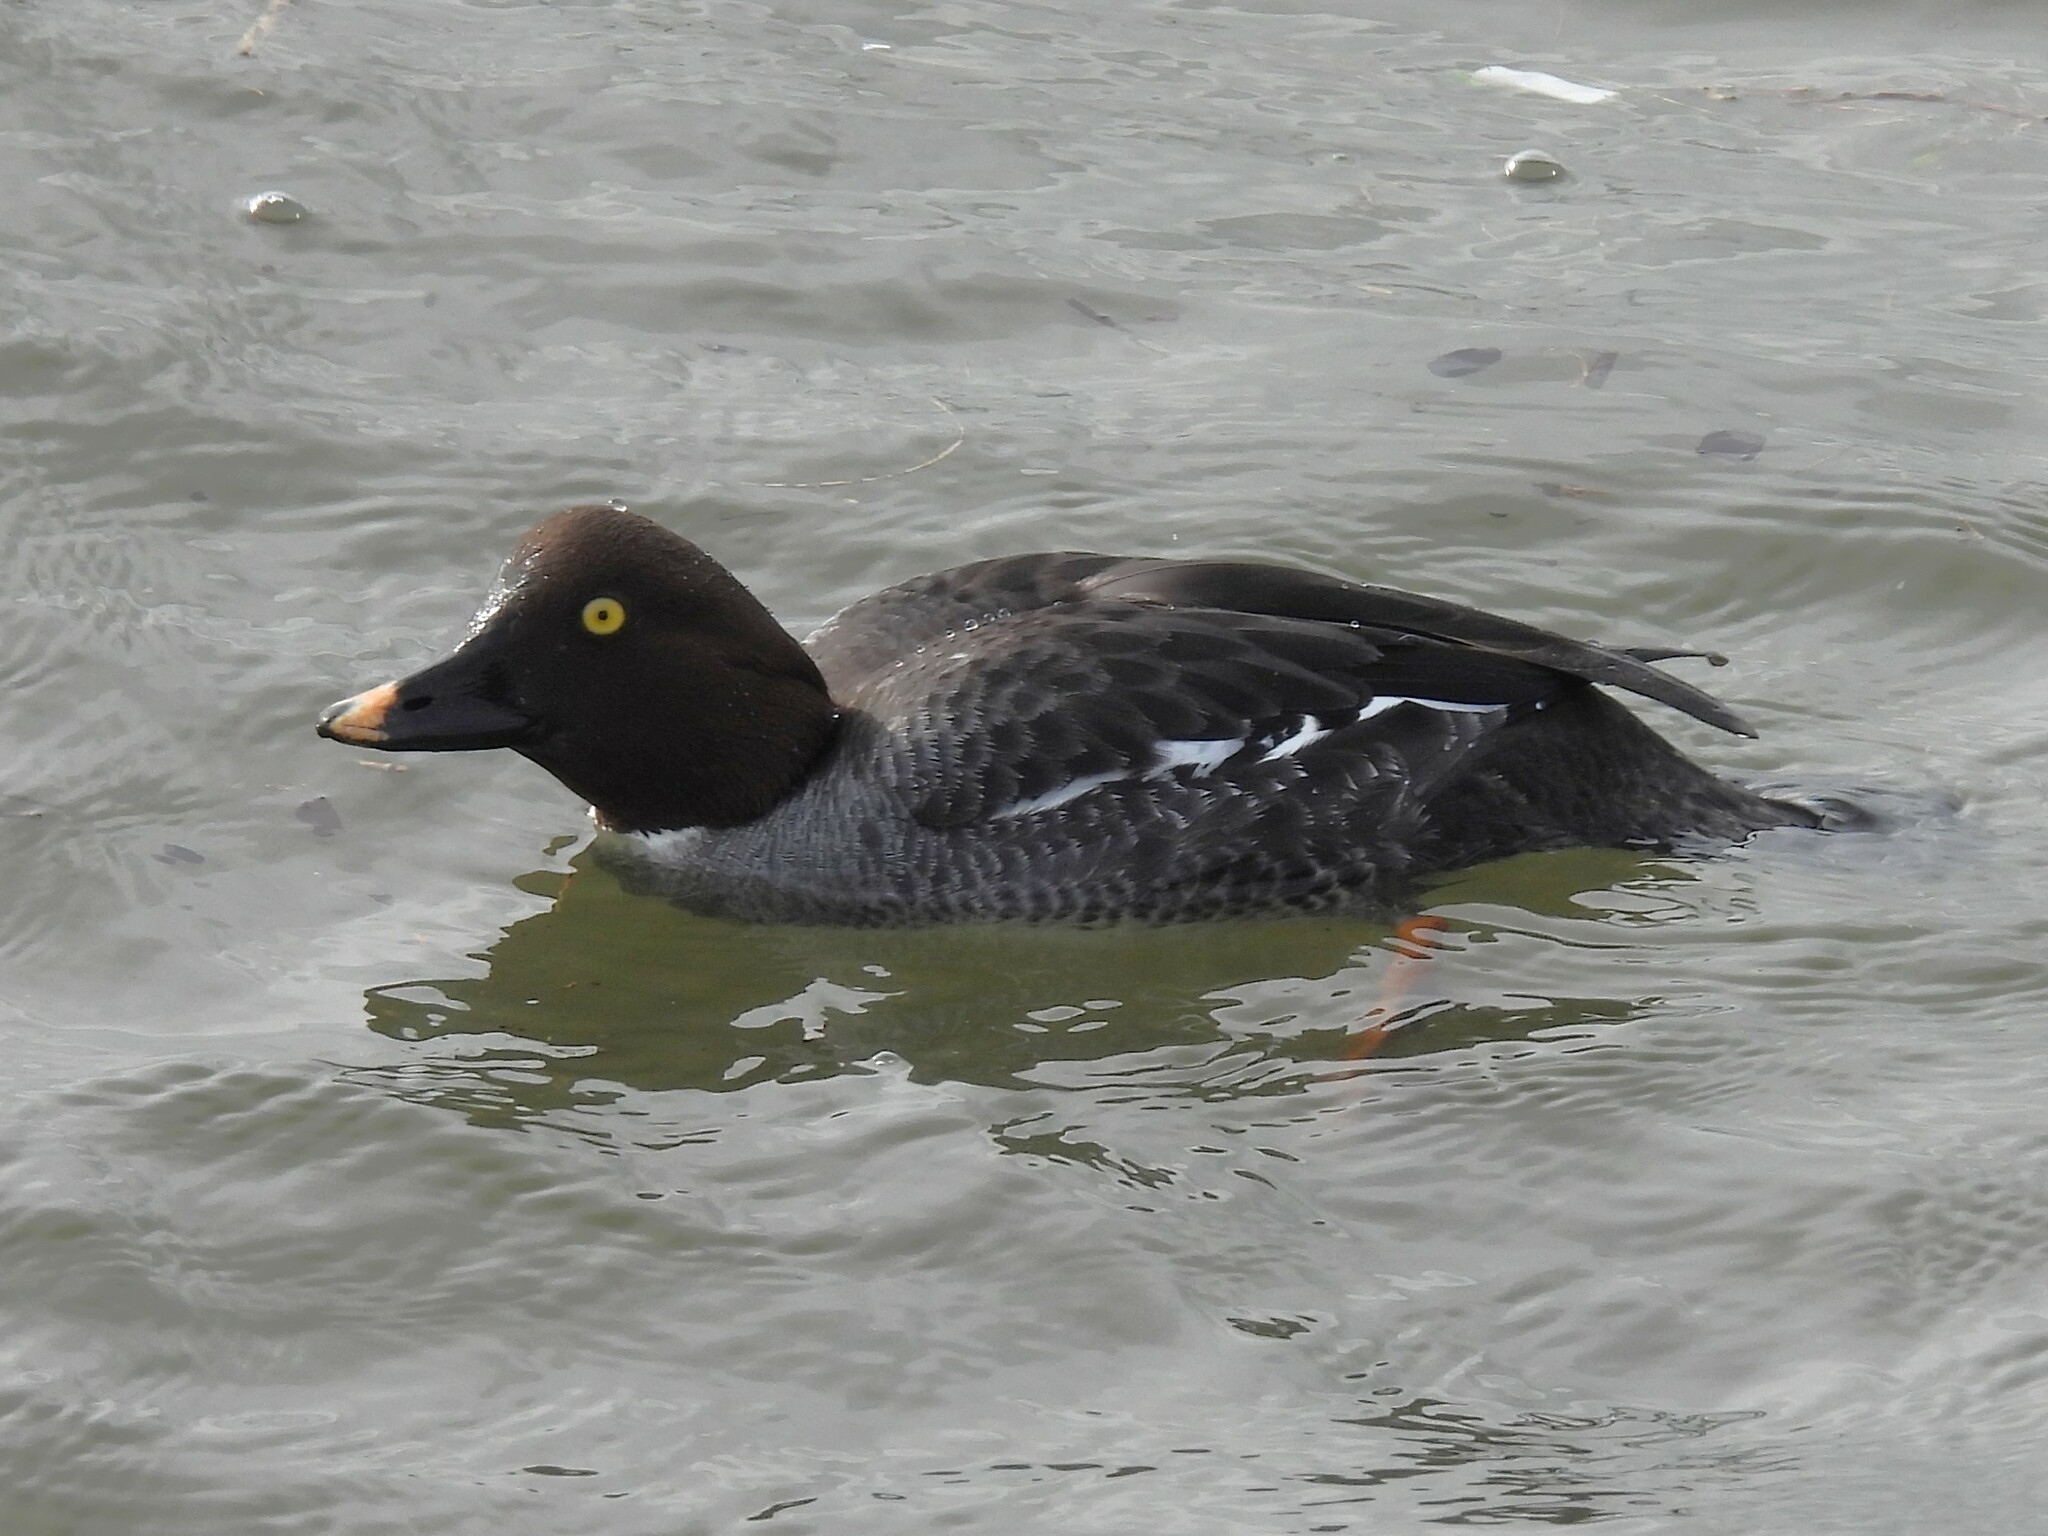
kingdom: Animalia
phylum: Chordata
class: Aves
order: Anseriformes
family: Anatidae
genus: Bucephala
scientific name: Bucephala clangula
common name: Common goldeneye
